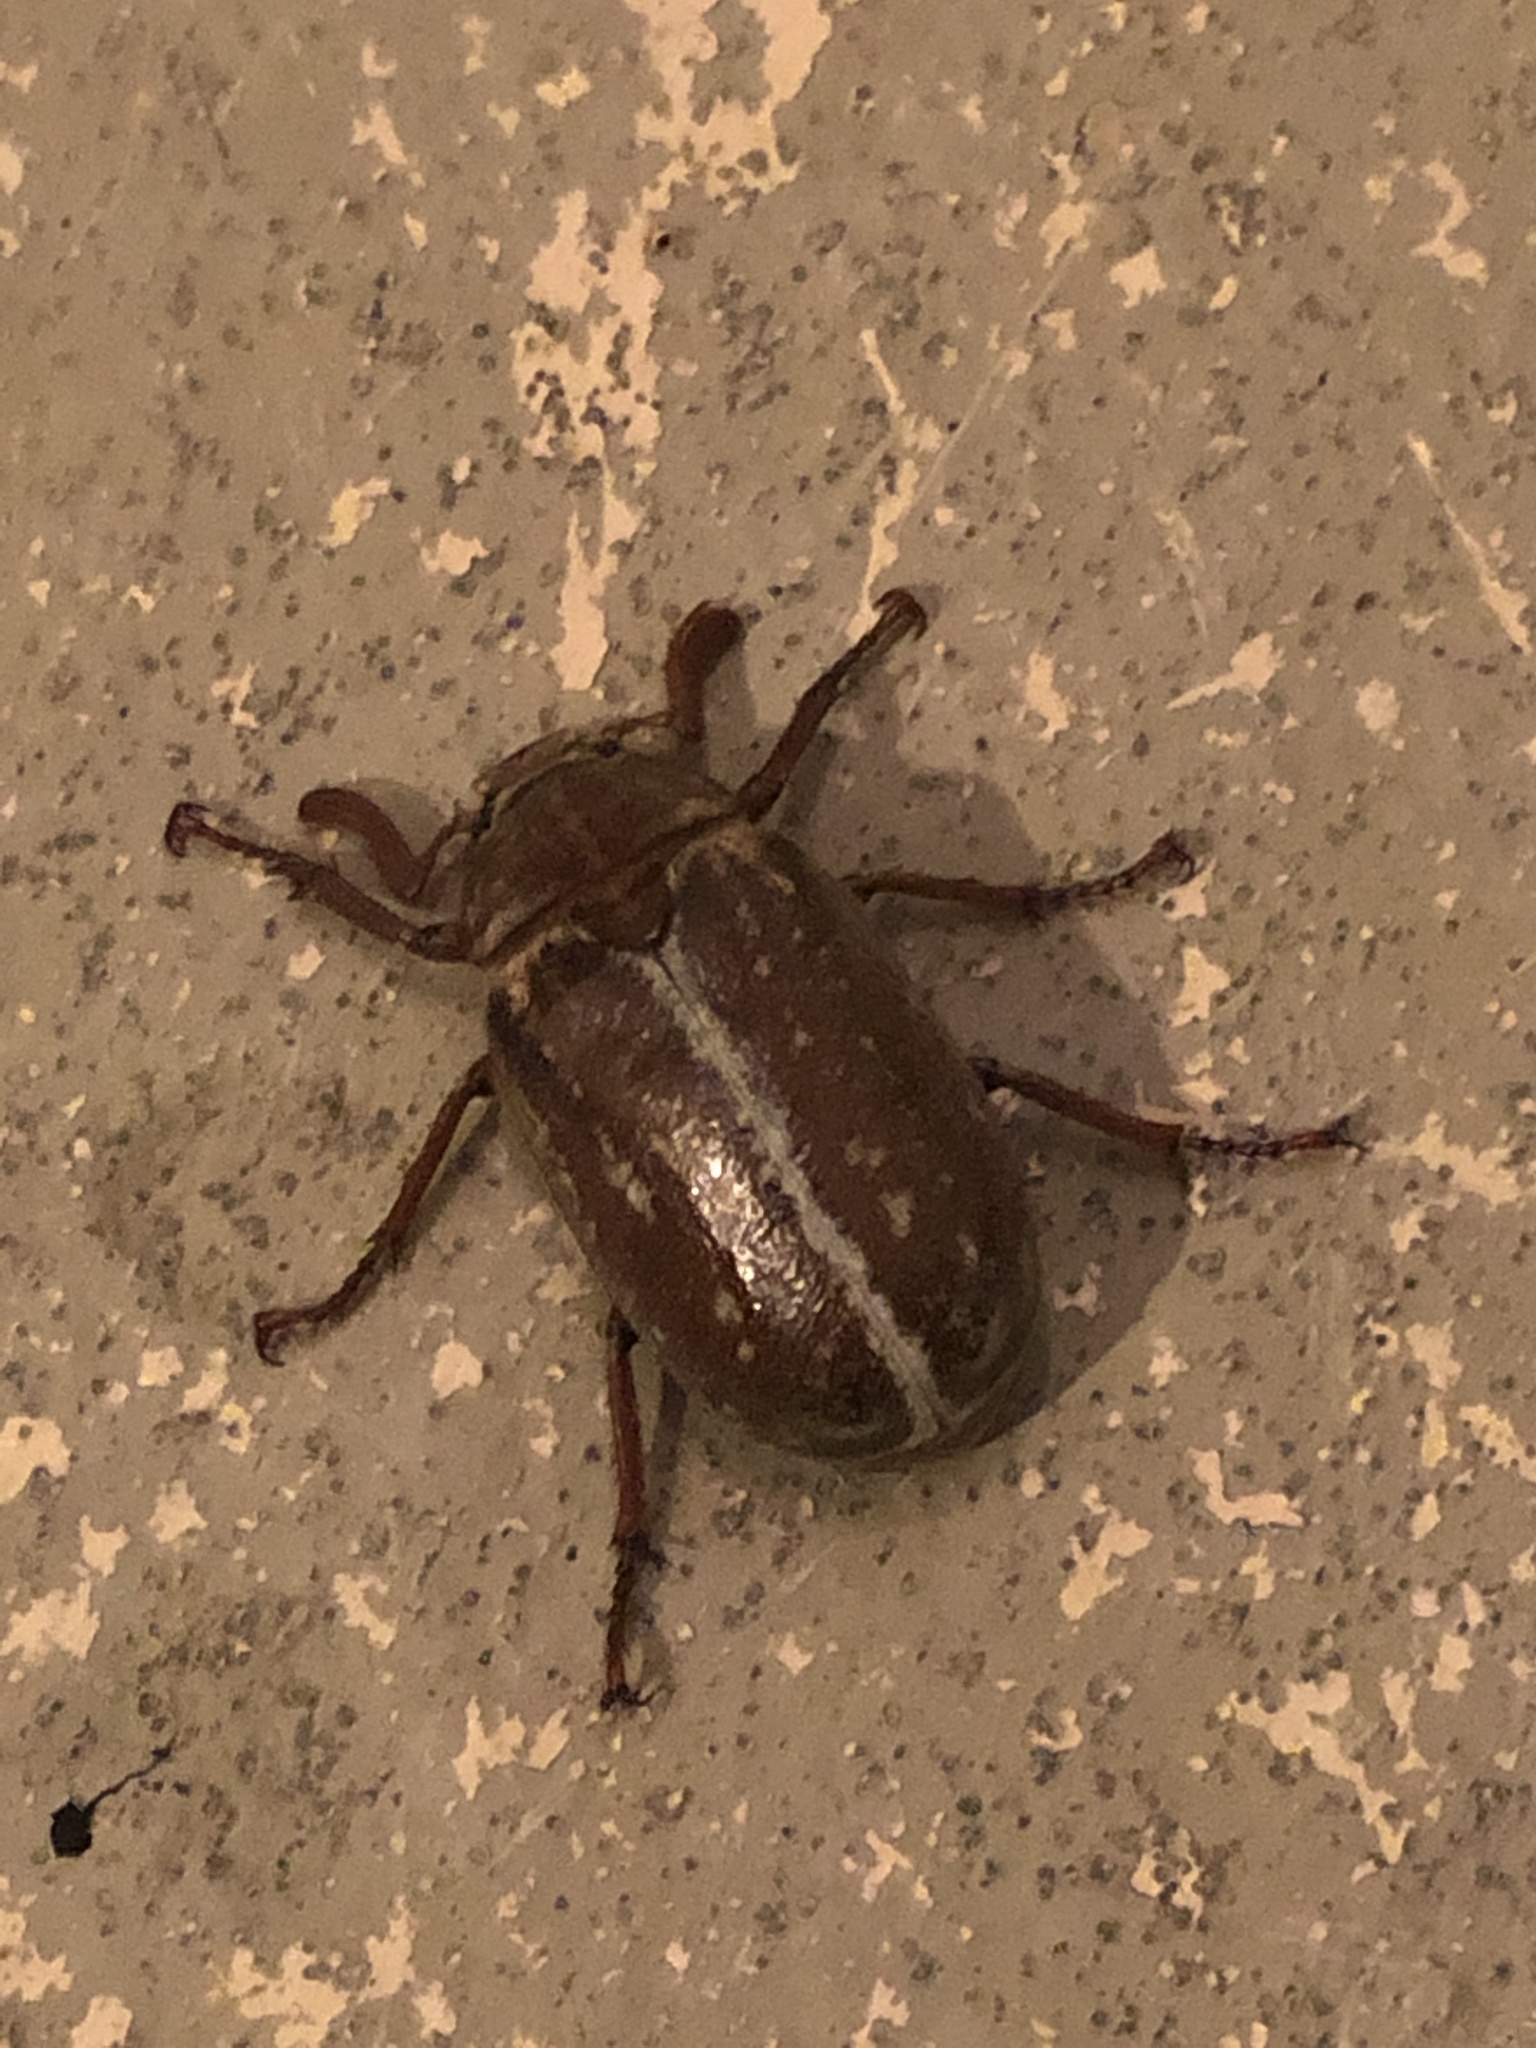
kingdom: Animalia
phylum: Arthropoda
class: Insecta
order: Coleoptera
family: Scarabaeidae
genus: Polyphylla
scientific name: Polyphylla variolosa
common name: Variegated june beetle
